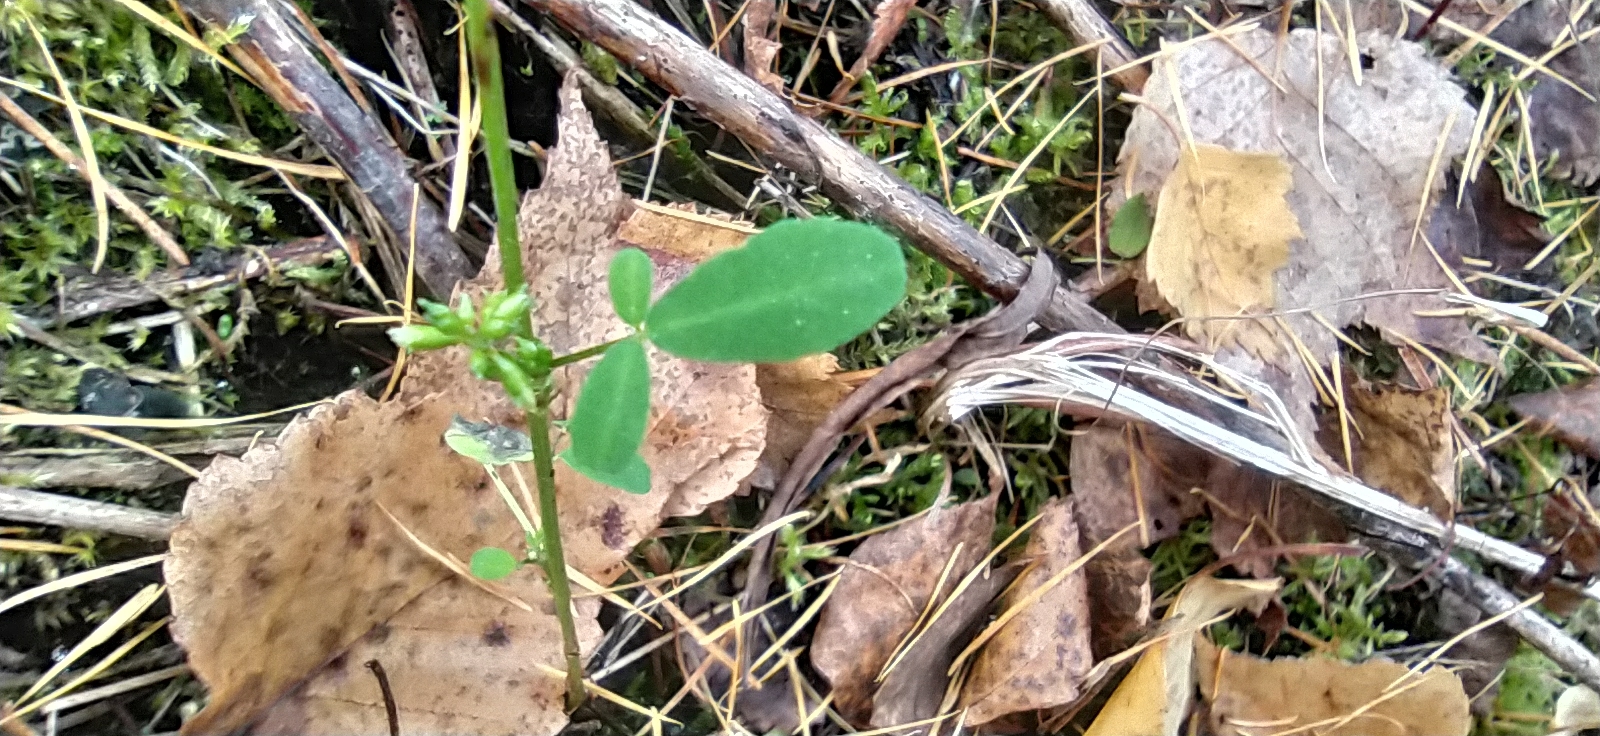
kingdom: Plantae
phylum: Tracheophyta
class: Magnoliopsida
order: Fabales
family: Fabaceae
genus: Melilotus
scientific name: Melilotus albus
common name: White melilot
